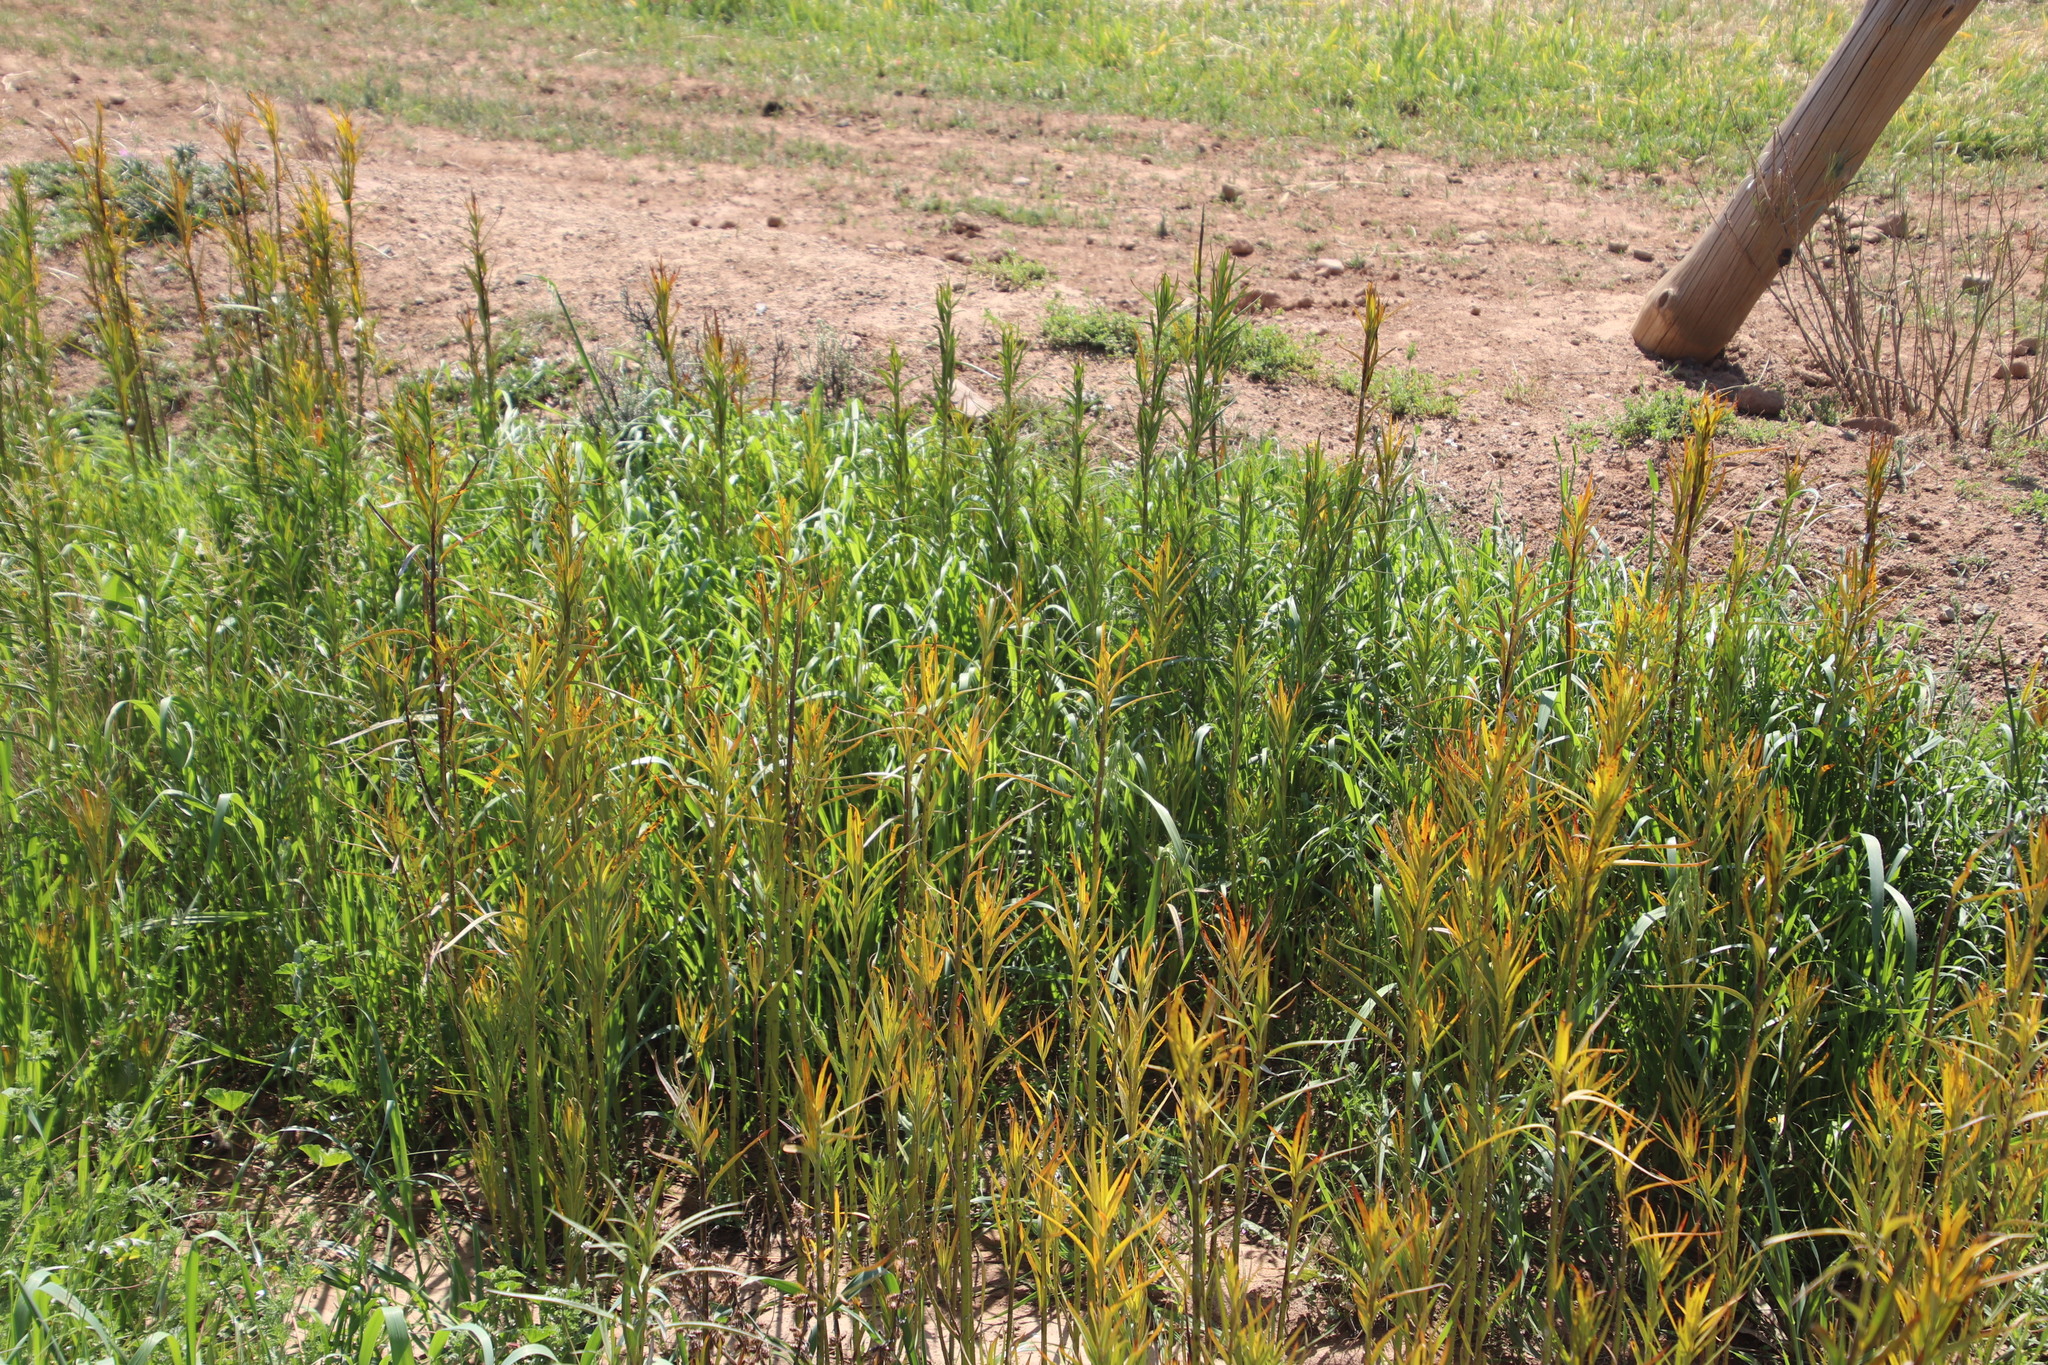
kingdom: Plantae
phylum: Tracheophyta
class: Magnoliopsida
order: Gentianales
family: Apocynaceae
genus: Gomphocarpus
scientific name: Gomphocarpus fruticosus
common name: Milkweed
